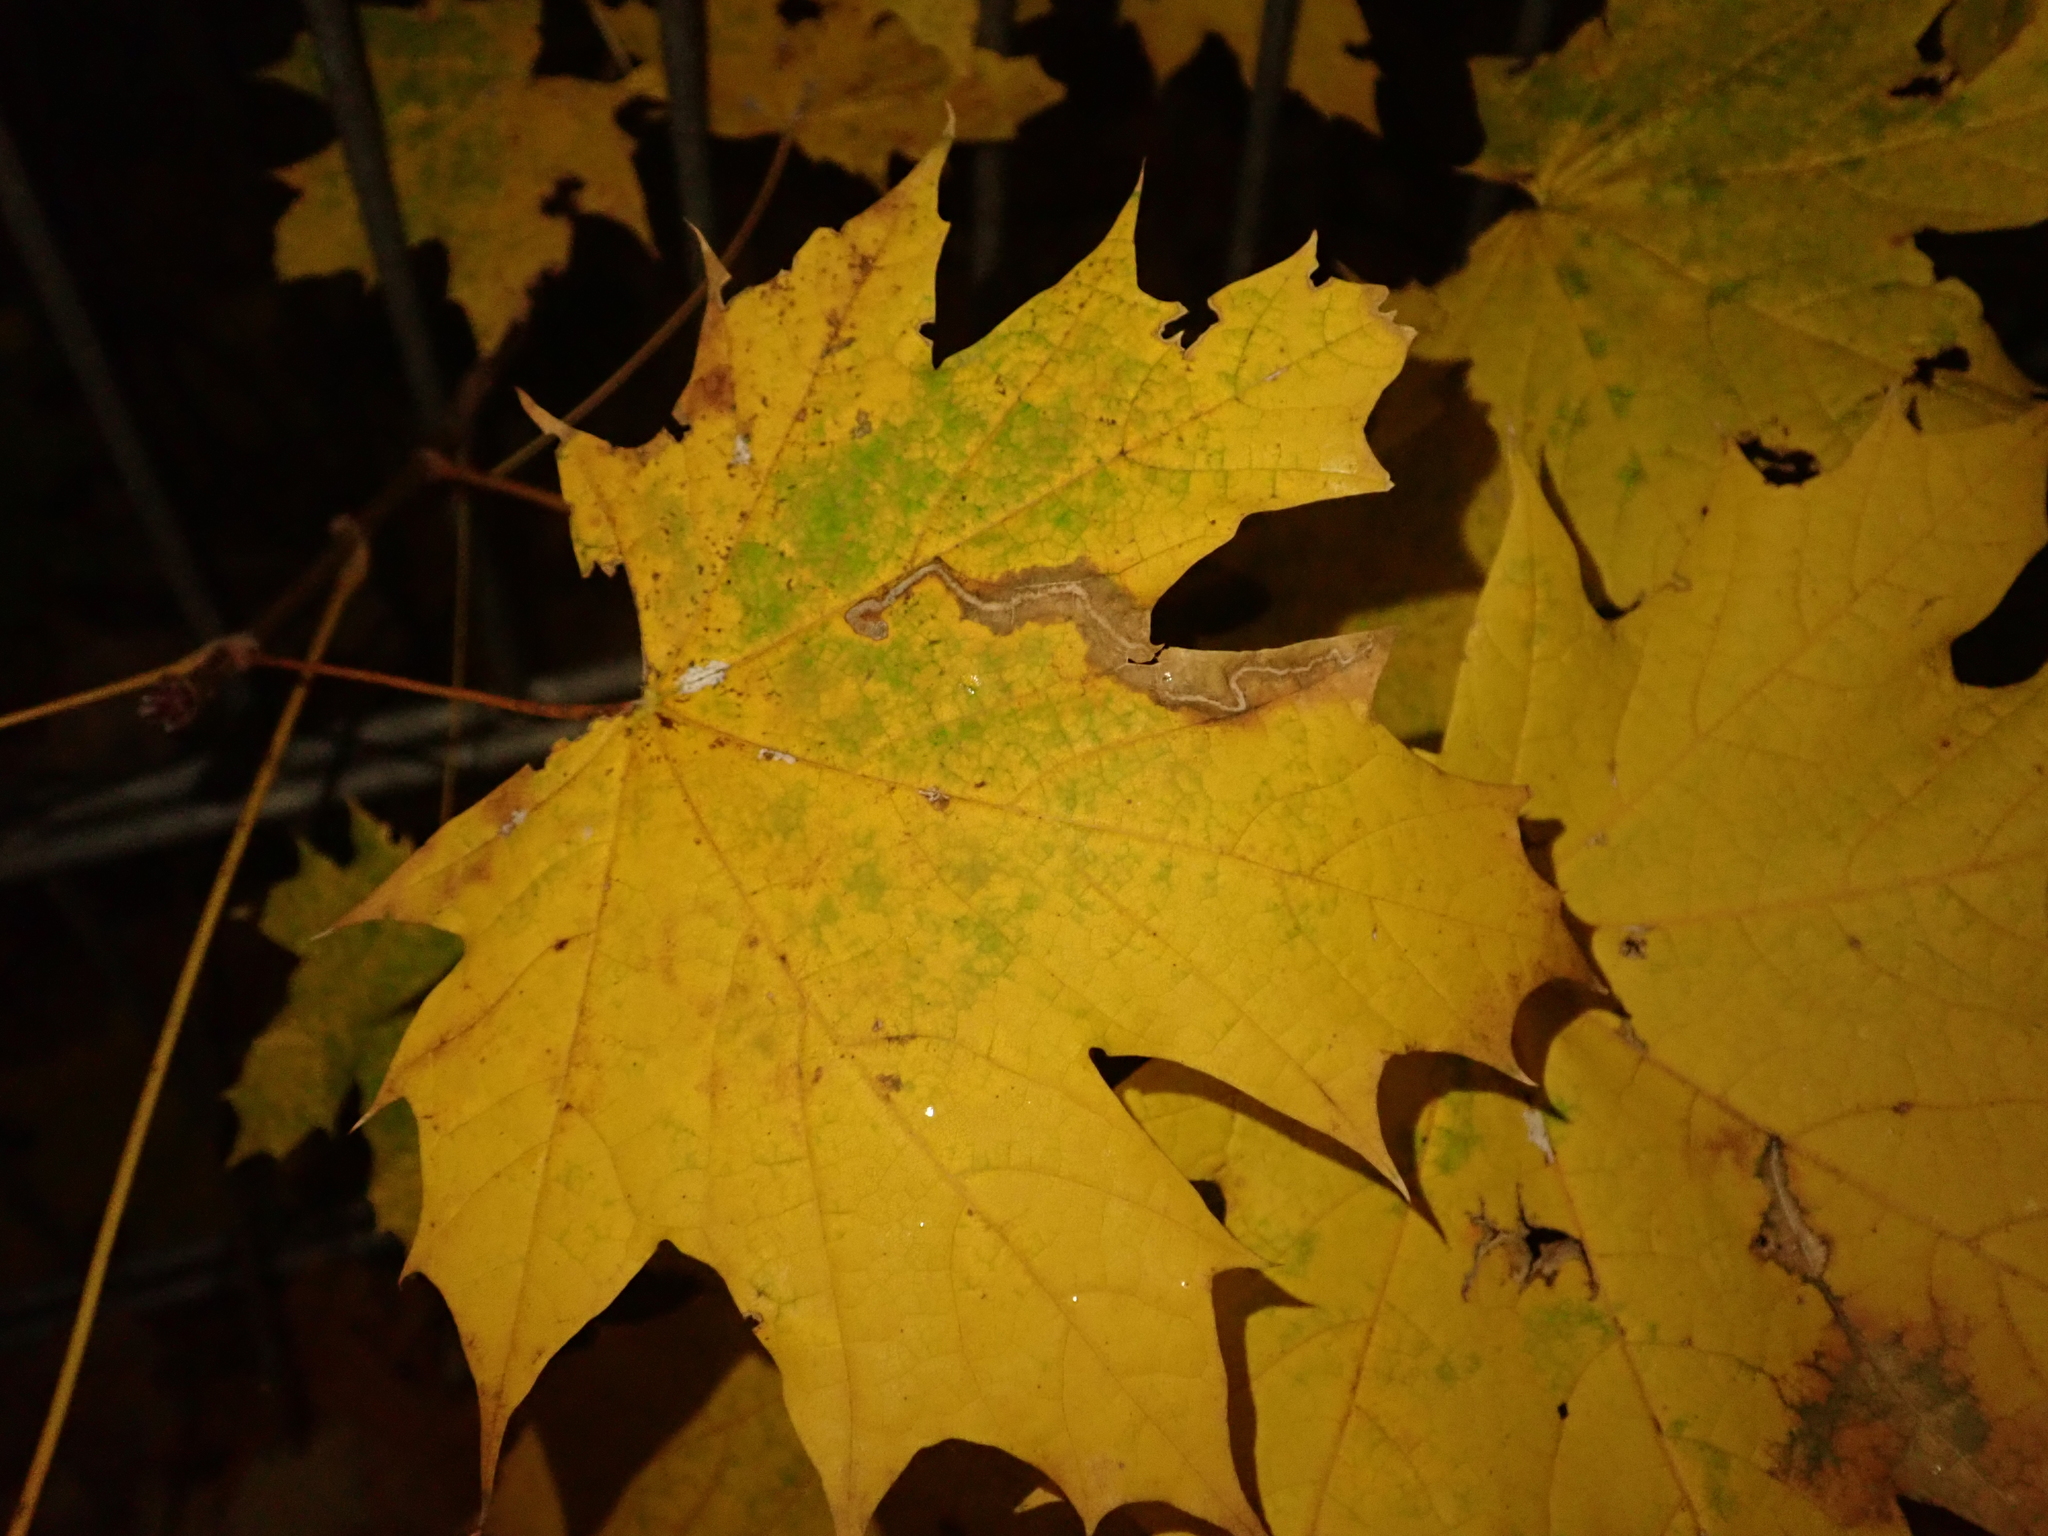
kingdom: Plantae
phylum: Tracheophyta
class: Magnoliopsida
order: Sapindales
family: Sapindaceae
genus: Acer
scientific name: Acer platanoides
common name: Norway maple
